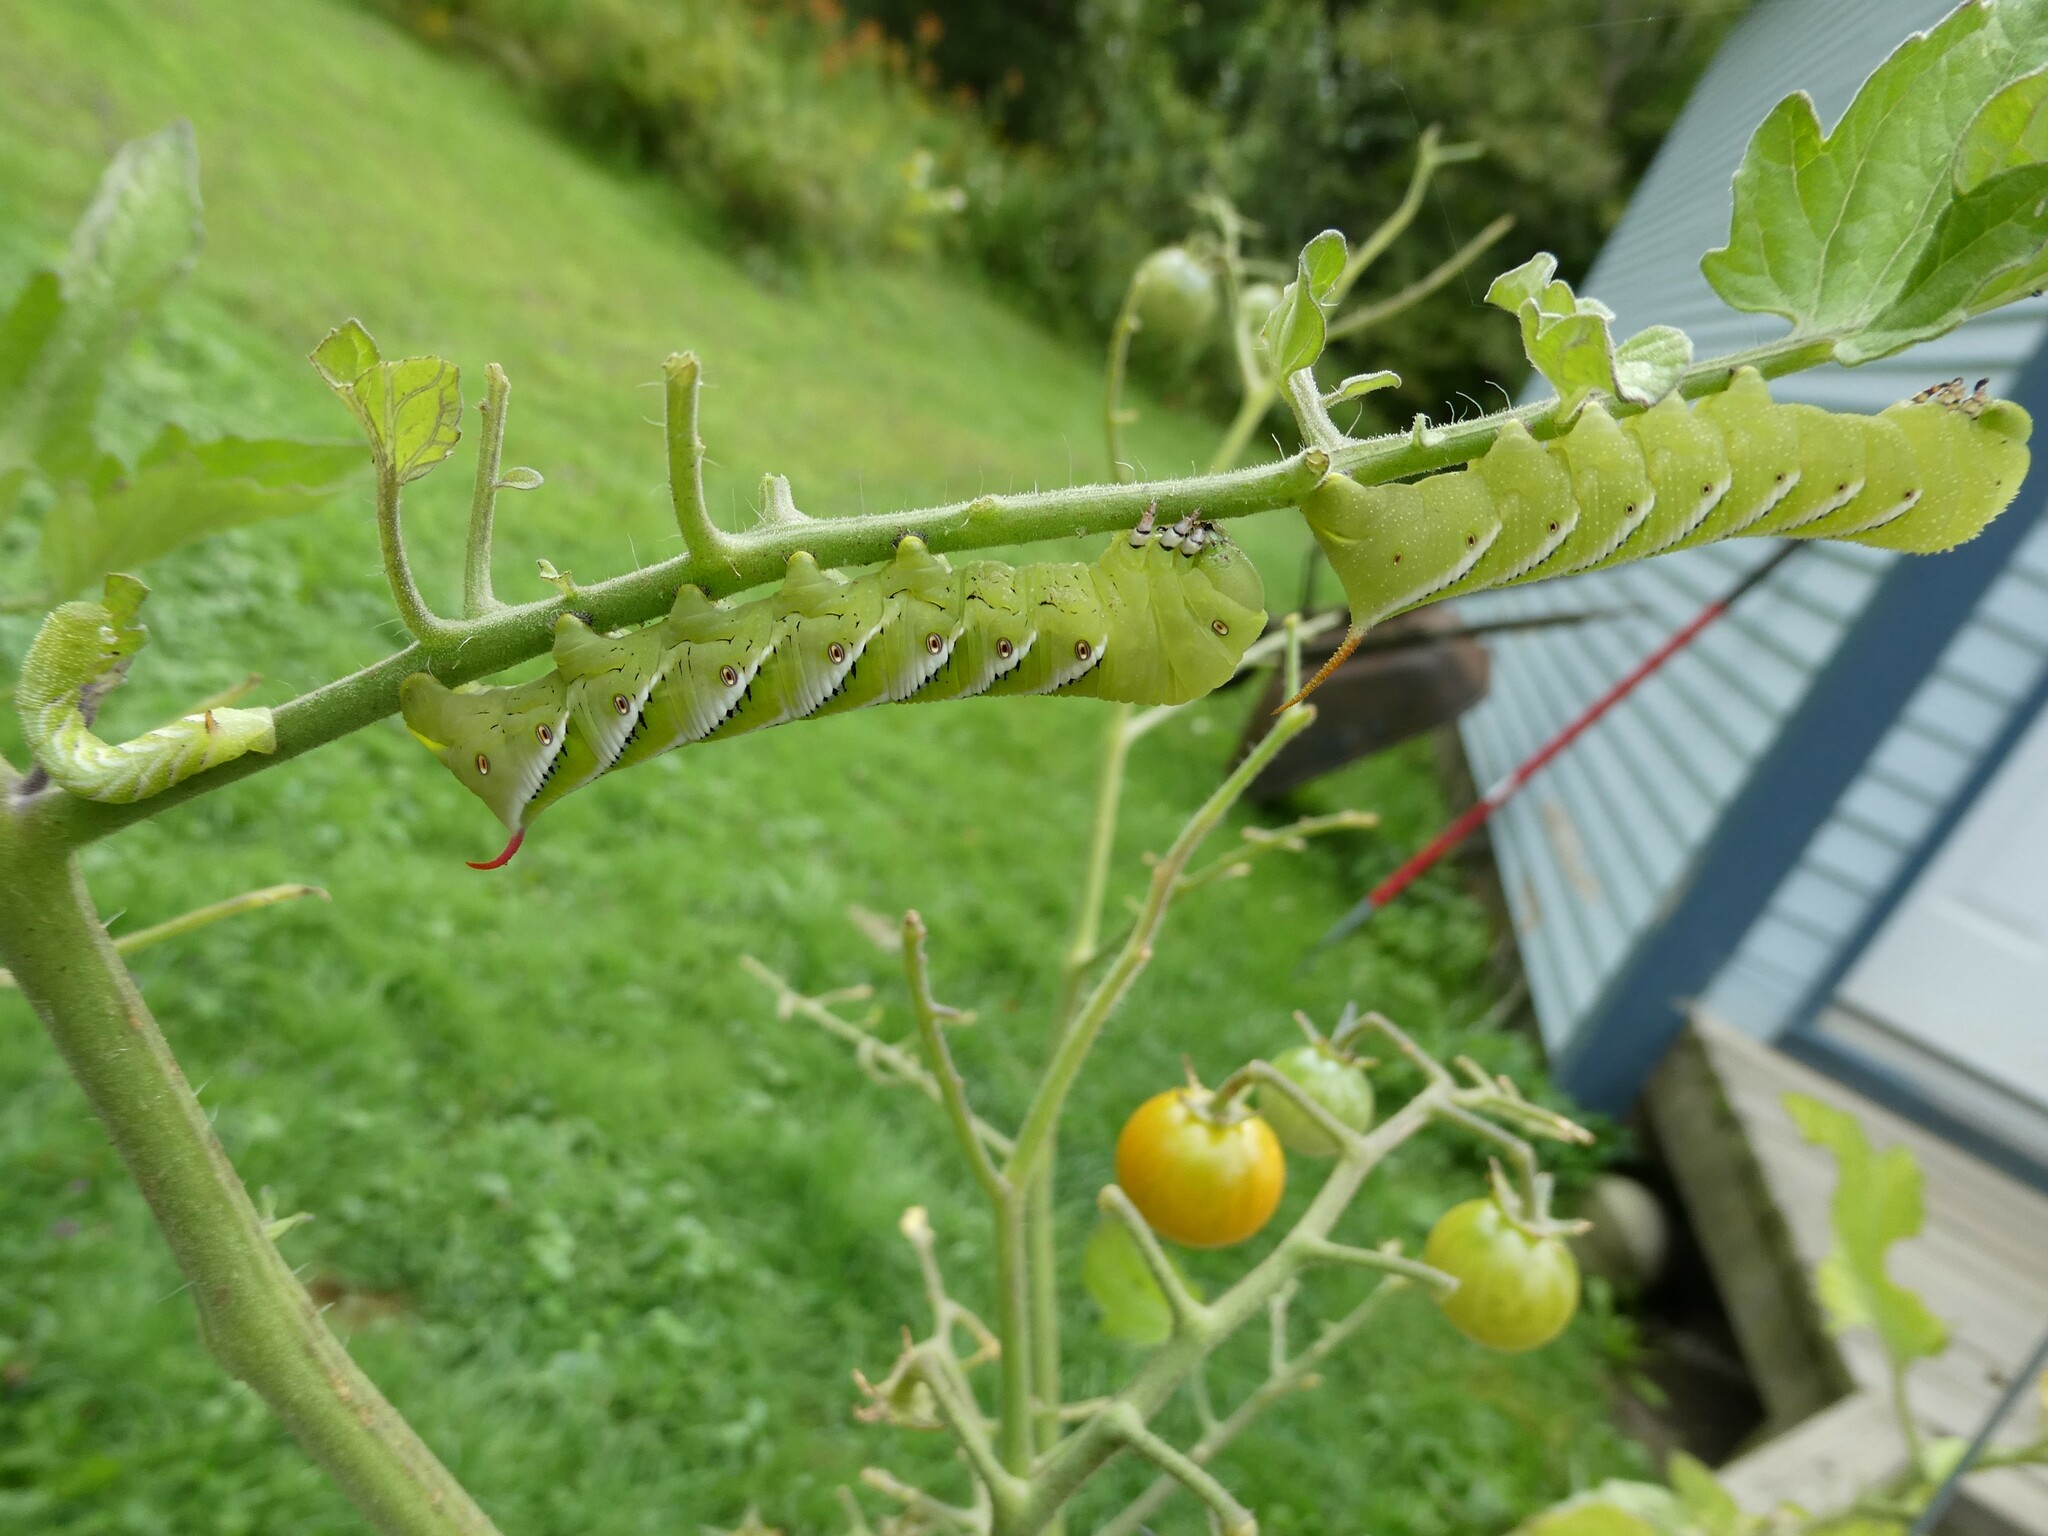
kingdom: Animalia
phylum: Arthropoda
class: Insecta
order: Lepidoptera
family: Sphingidae
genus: Manduca
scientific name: Manduca sexta
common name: Carolina sphinx
